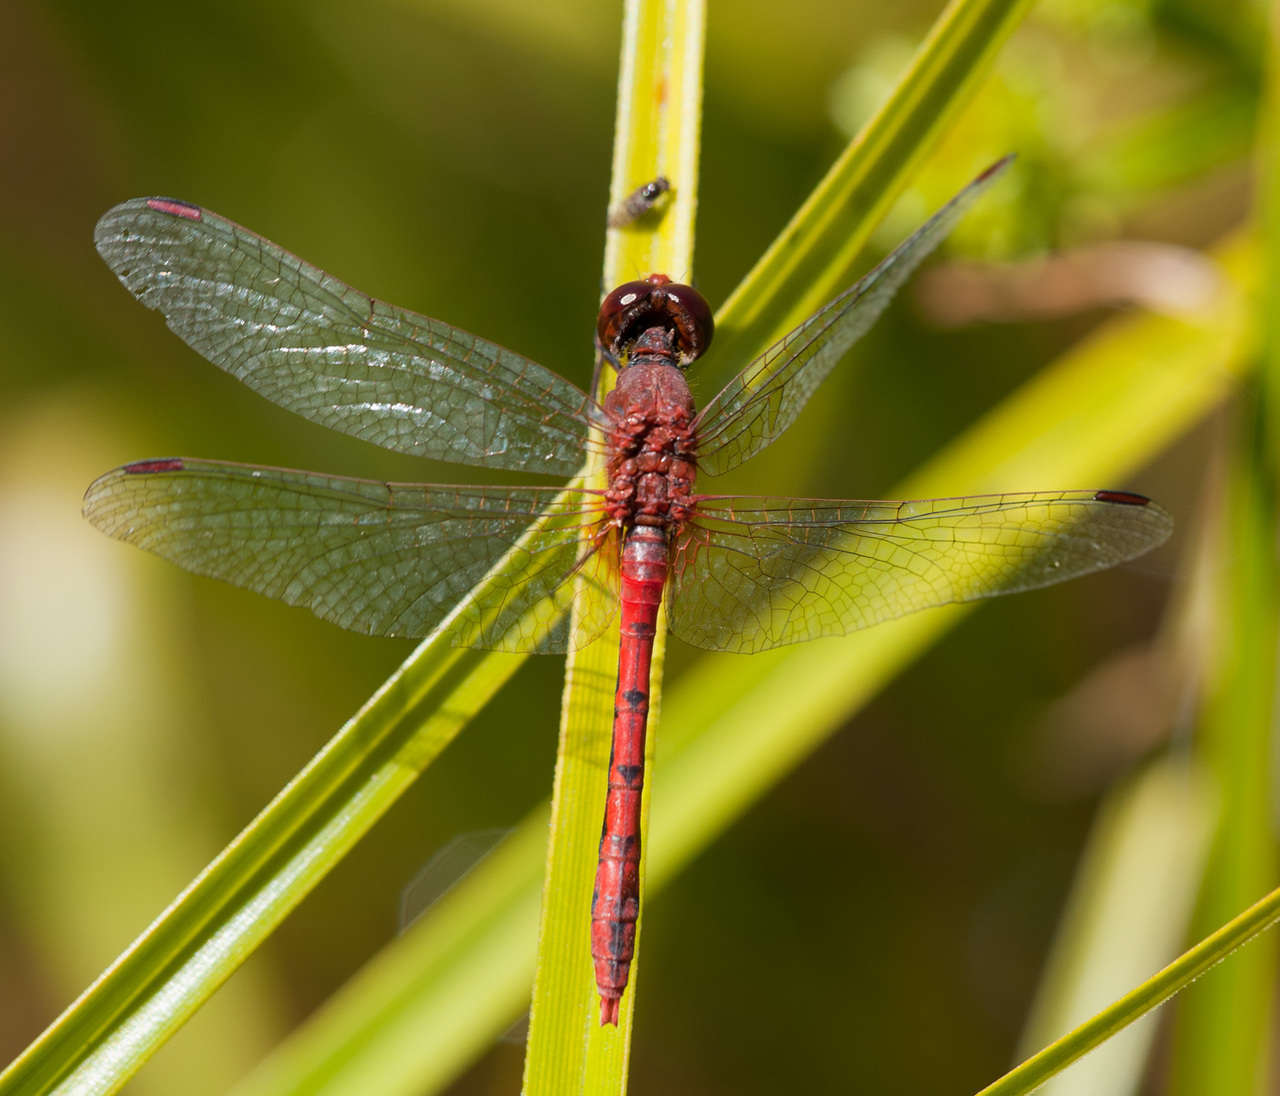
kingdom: Animalia
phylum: Arthropoda
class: Insecta
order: Odonata
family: Libellulidae
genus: Diplacodes
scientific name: Diplacodes bipunctata
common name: Red percher dragonfly
